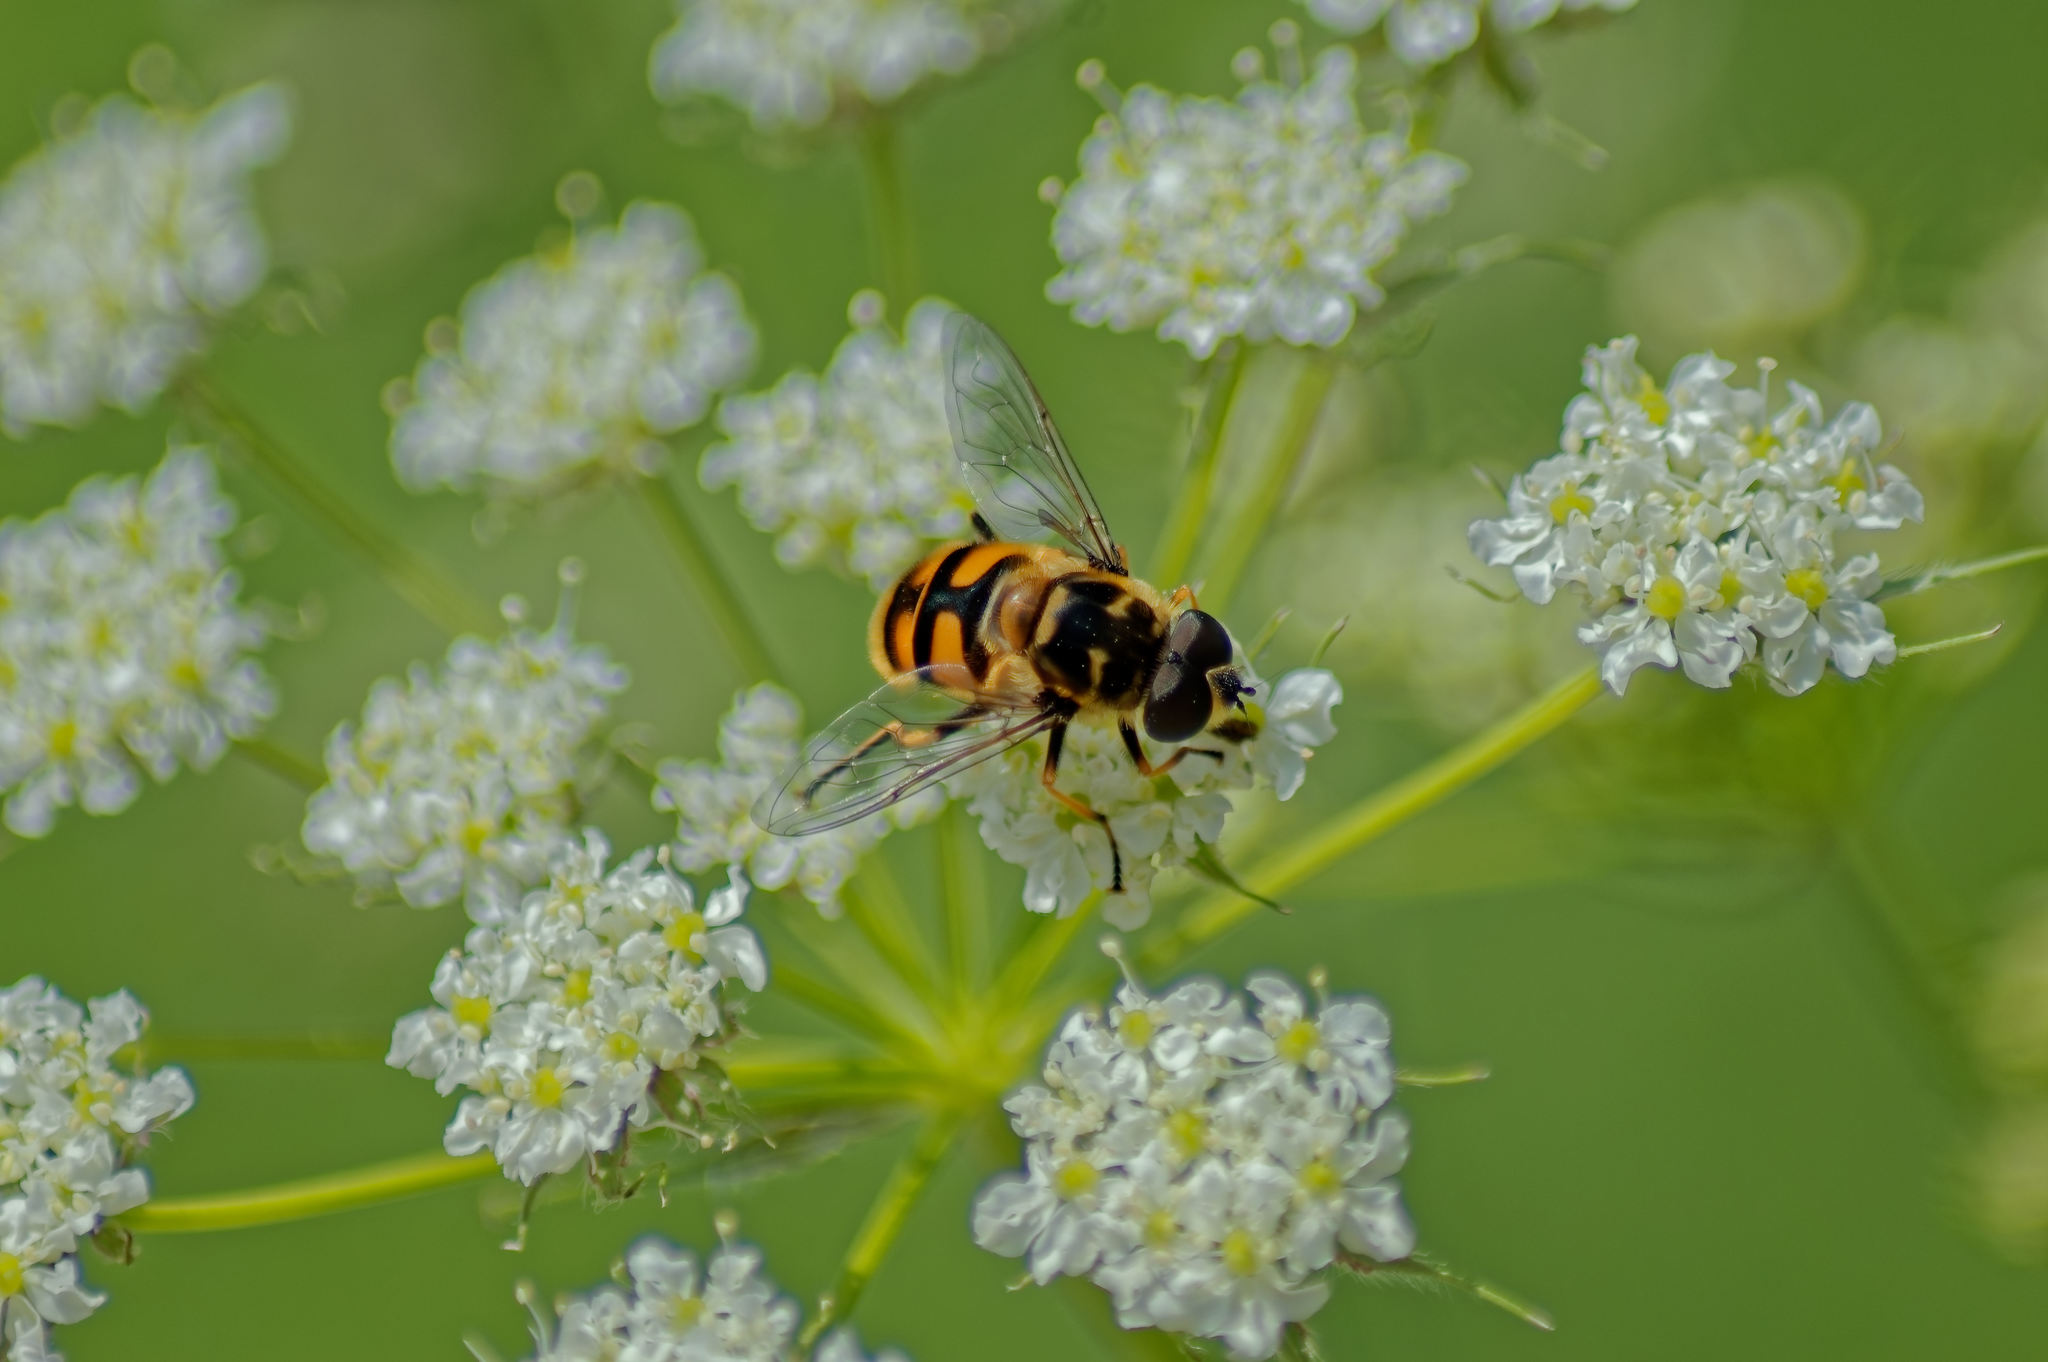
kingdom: Animalia
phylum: Arthropoda
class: Insecta
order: Diptera
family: Syrphidae
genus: Myathropa
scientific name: Myathropa florea
